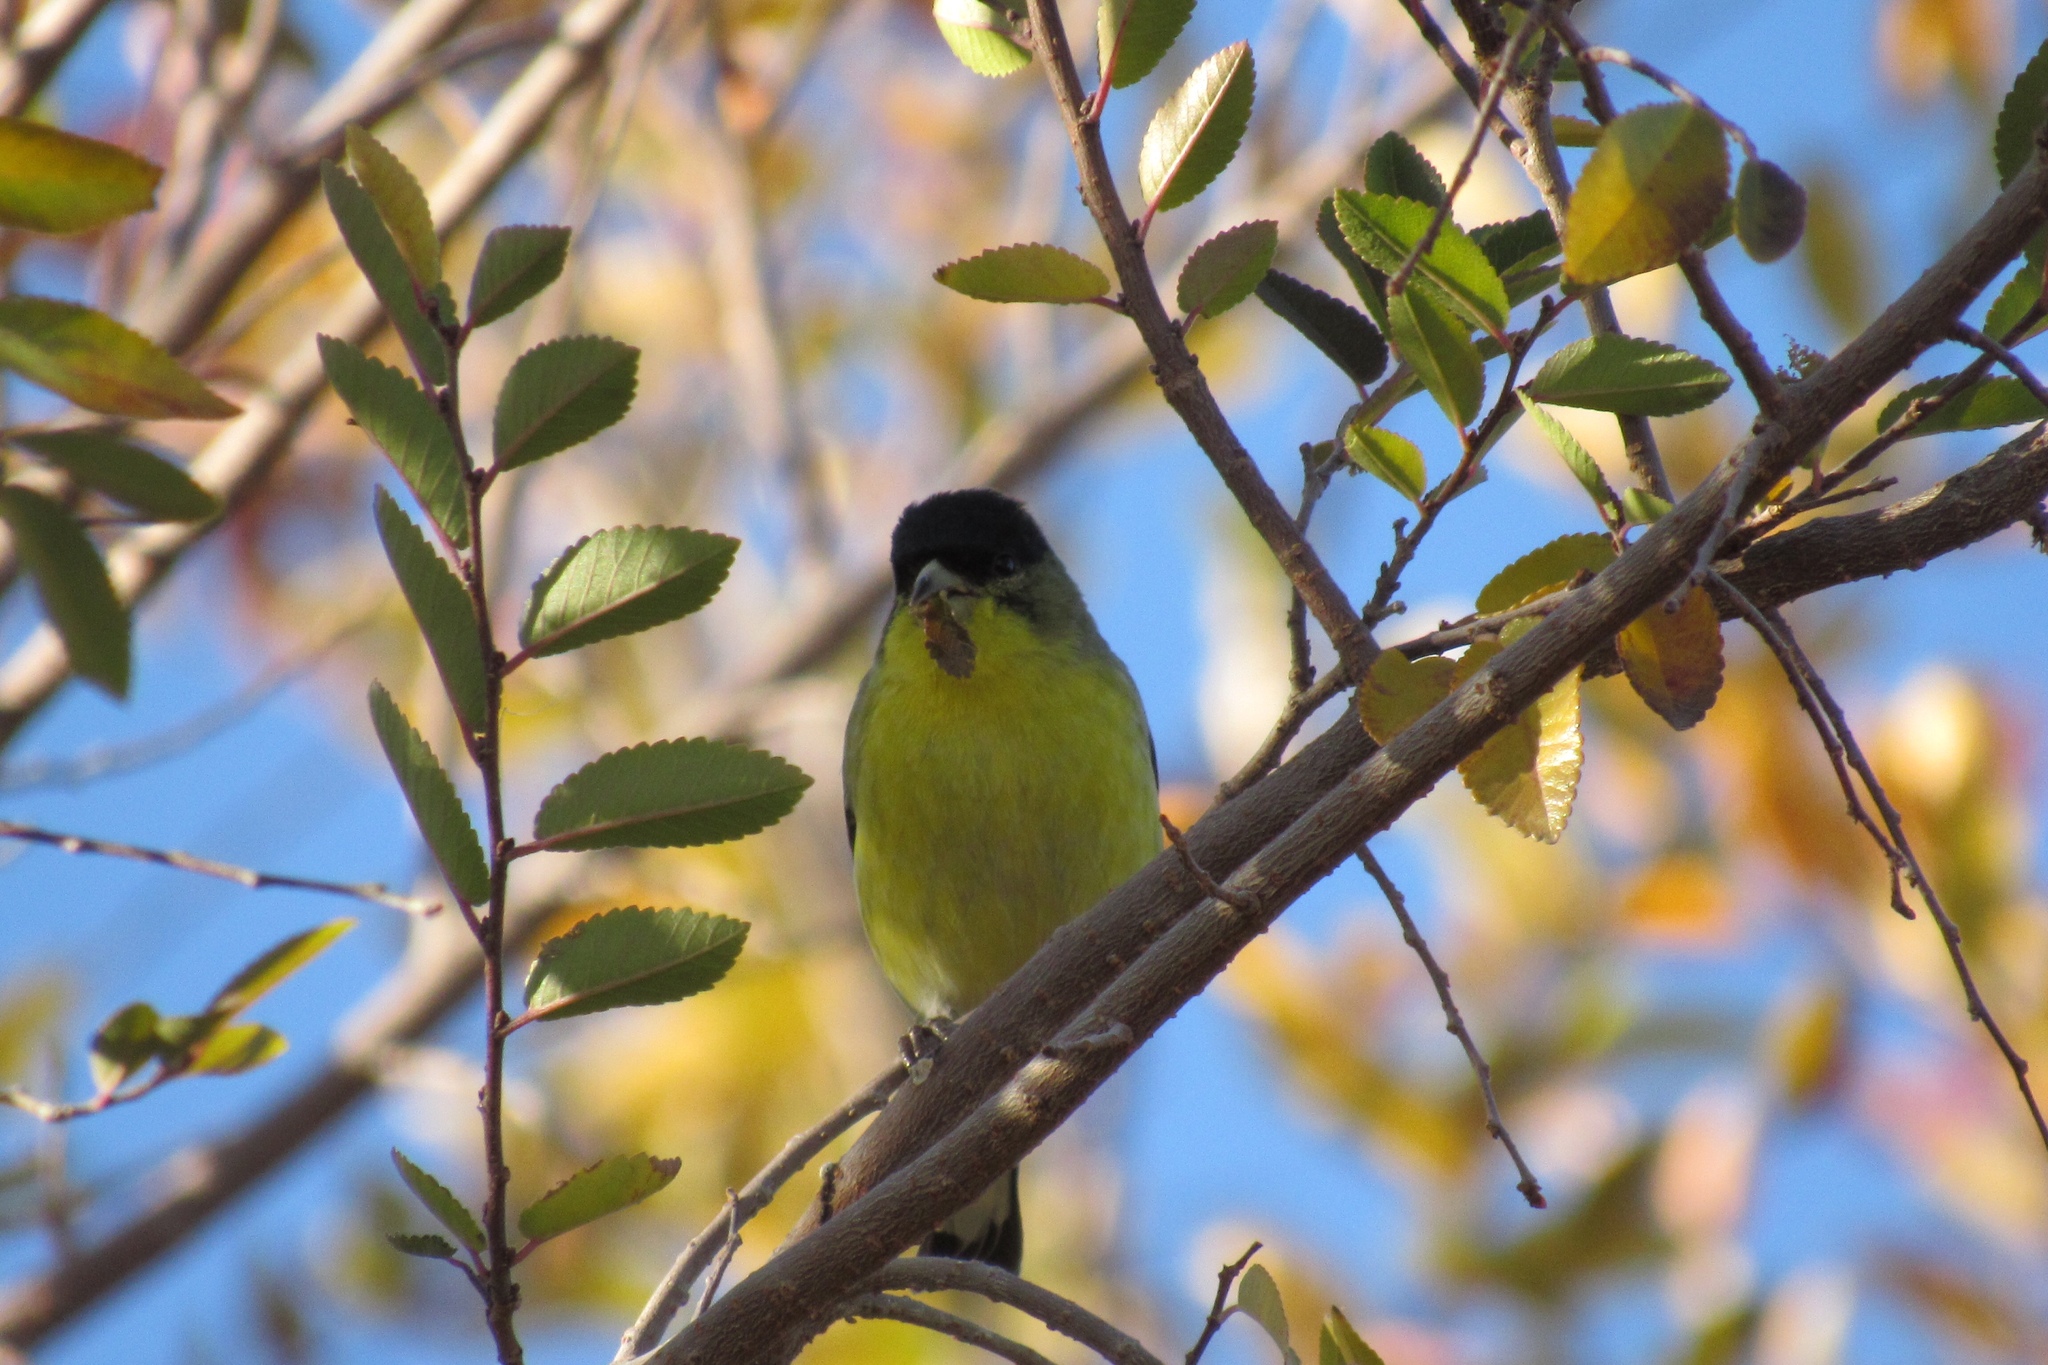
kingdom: Animalia
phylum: Chordata
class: Aves
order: Passeriformes
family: Fringillidae
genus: Spinus
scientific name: Spinus psaltria
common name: Lesser goldfinch
